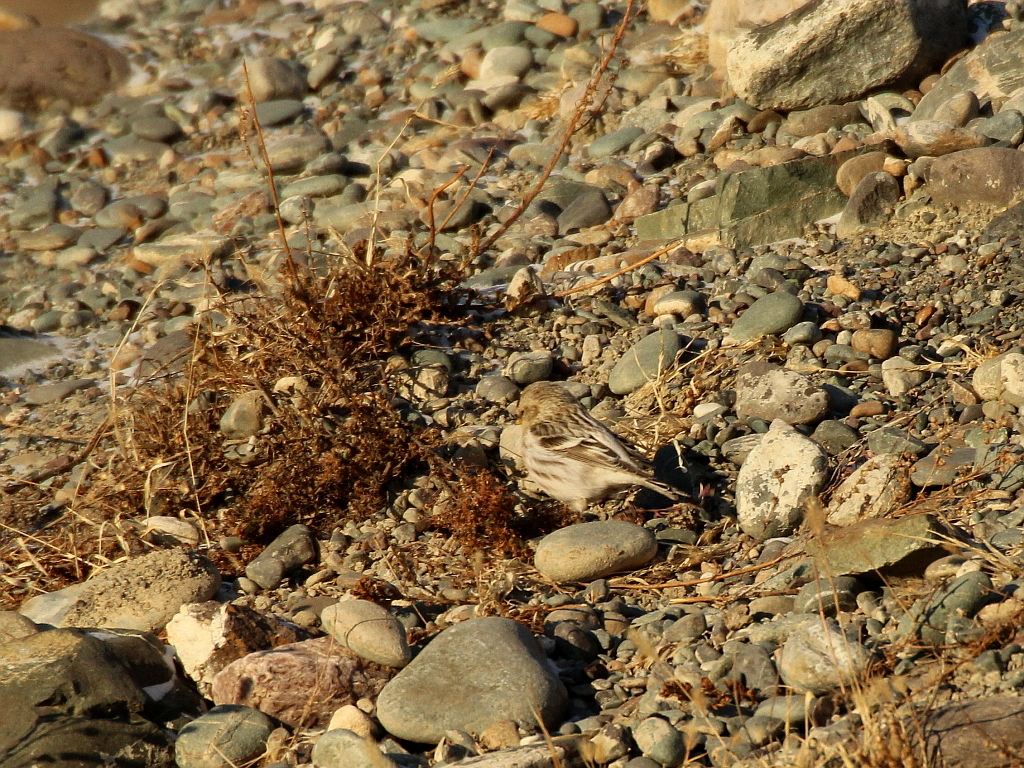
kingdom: Animalia
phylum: Chordata
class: Aves
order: Passeriformes
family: Fringillidae
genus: Acanthis
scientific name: Acanthis hornemanni
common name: Arctic redpoll
